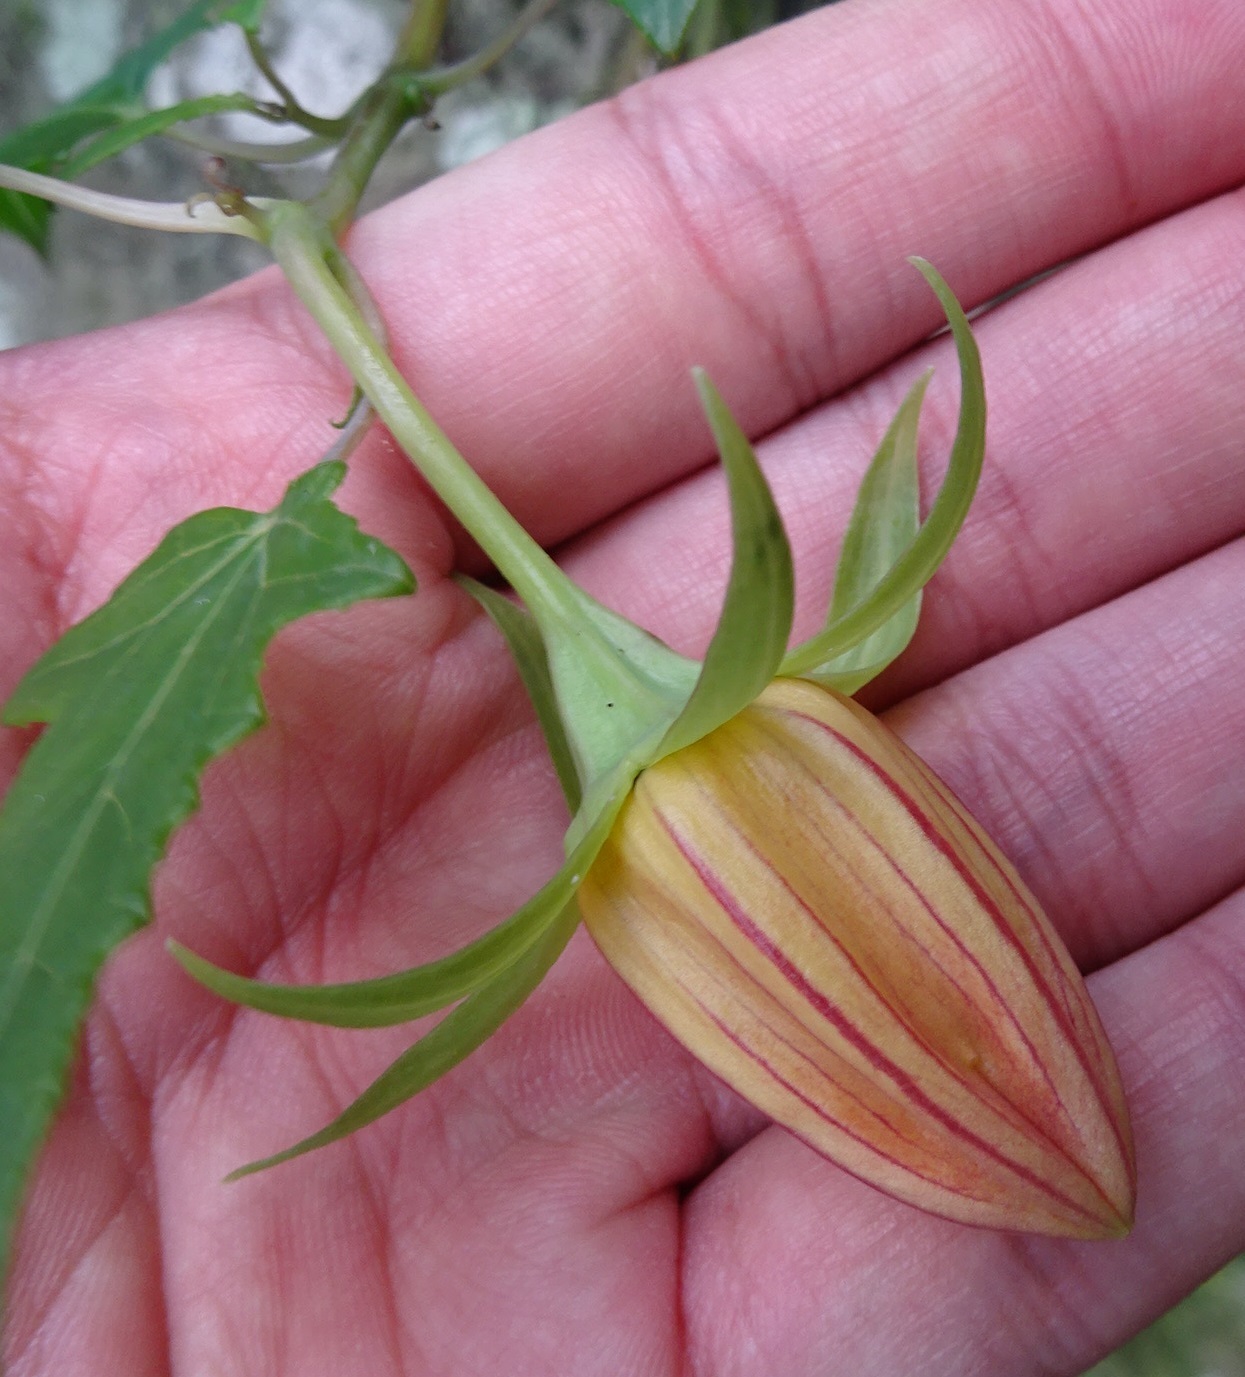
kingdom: Plantae
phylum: Tracheophyta
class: Magnoliopsida
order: Asterales
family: Campanulaceae
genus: Canarina
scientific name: Canarina canariensis
